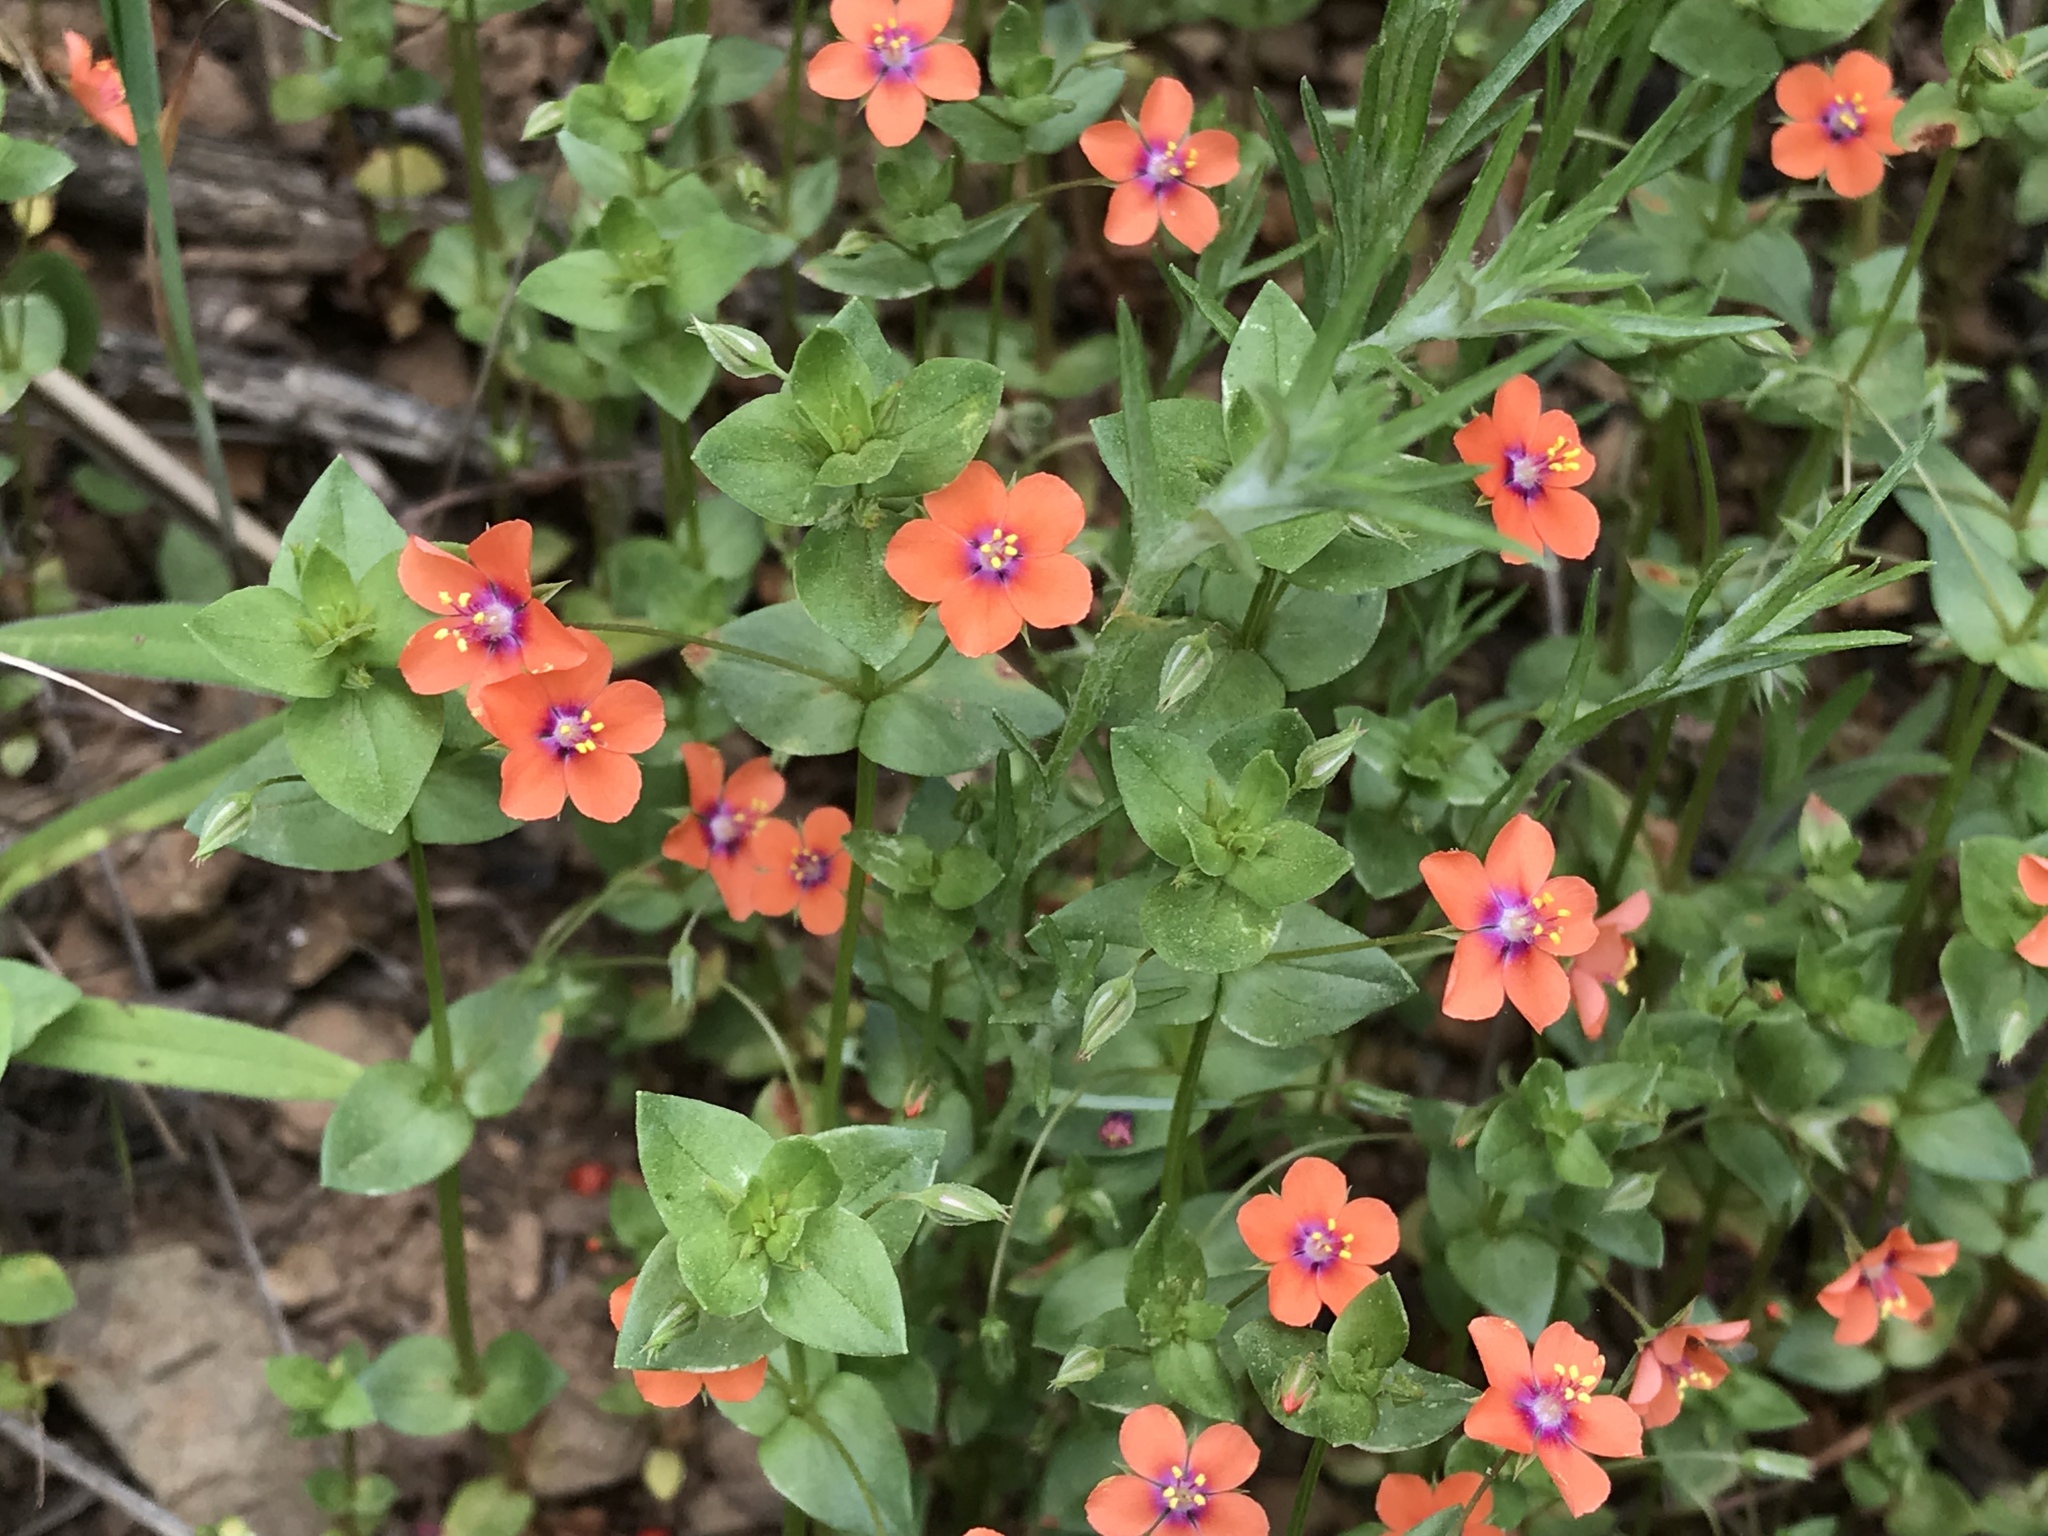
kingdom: Plantae
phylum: Tracheophyta
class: Magnoliopsida
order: Ericales
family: Primulaceae
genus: Lysimachia
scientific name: Lysimachia arvensis
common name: Scarlet pimpernel
